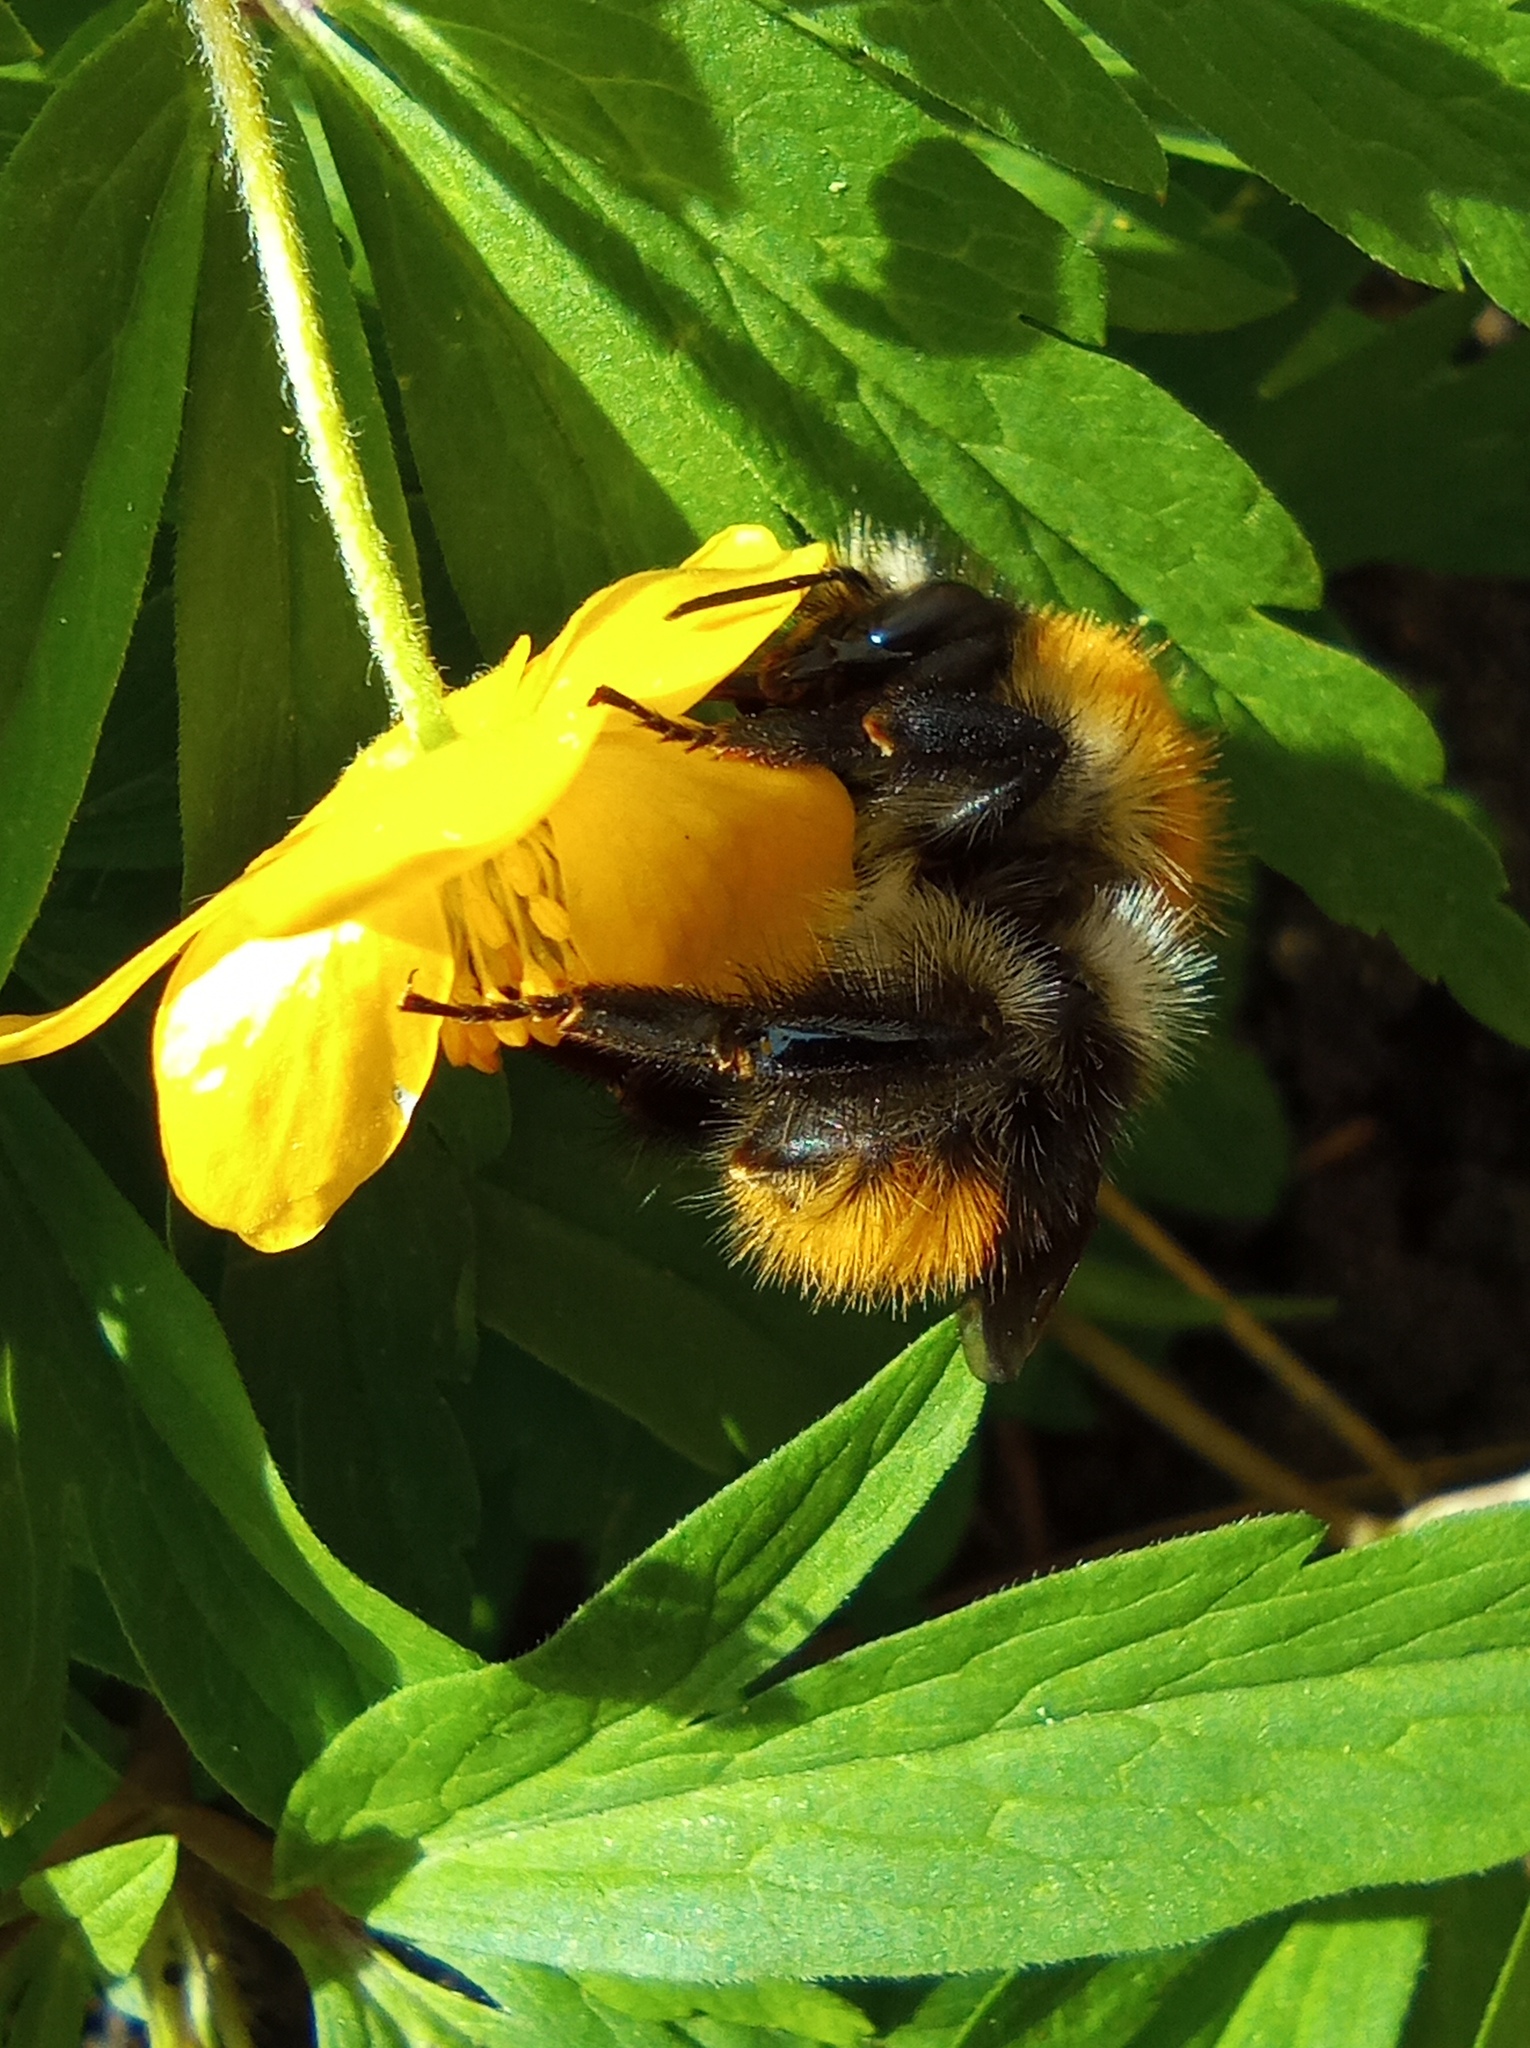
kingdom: Animalia
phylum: Arthropoda
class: Insecta
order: Hymenoptera
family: Apidae
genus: Bombus
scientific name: Bombus pascuorum
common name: Common carder bee
